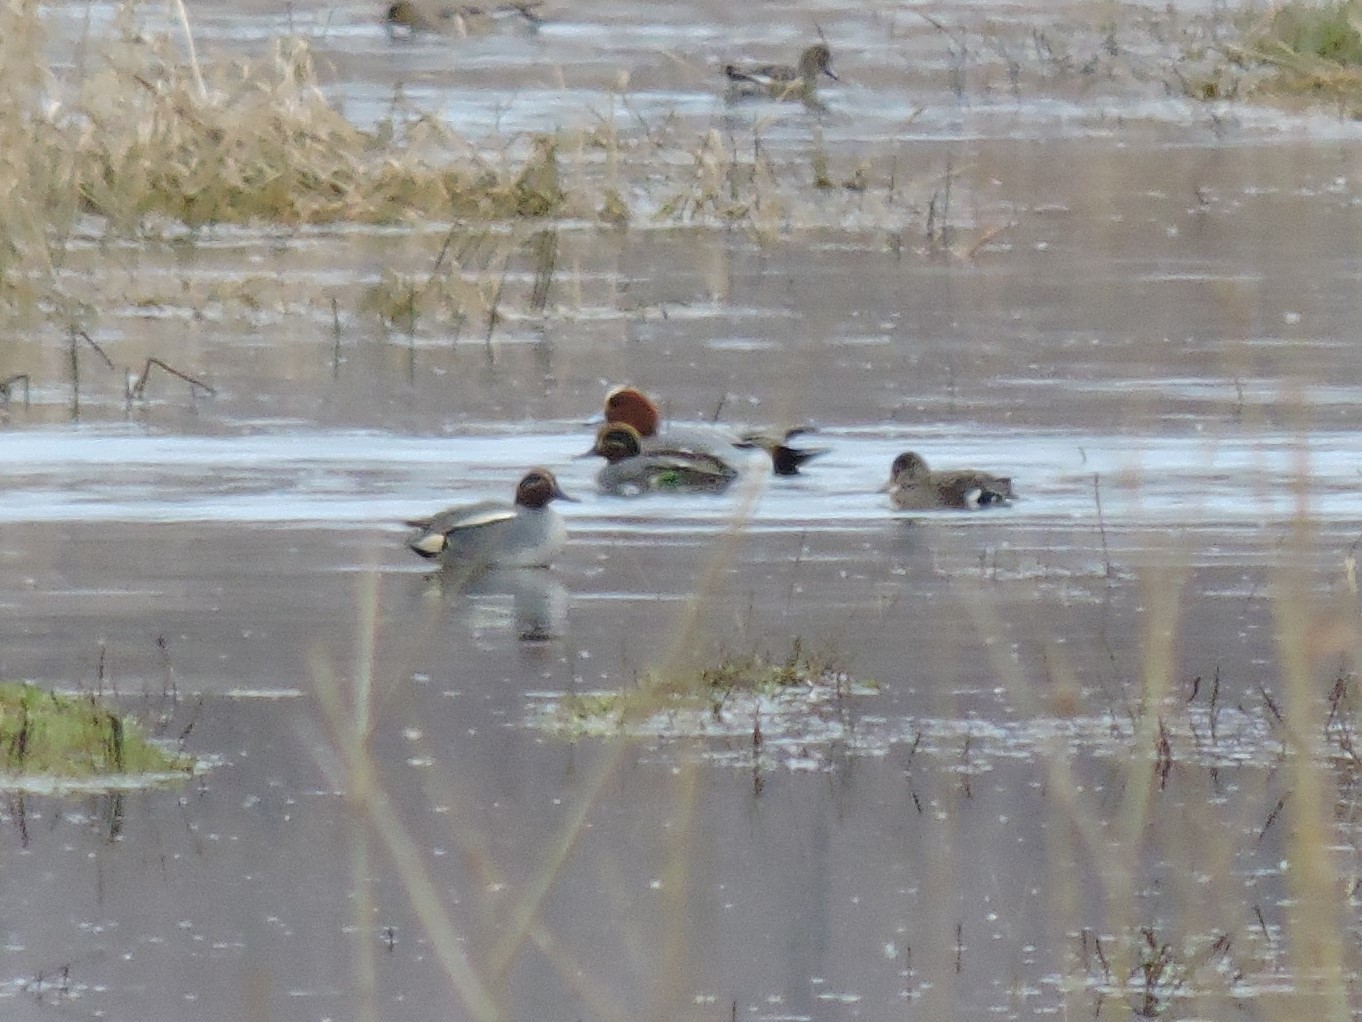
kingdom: Animalia
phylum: Chordata
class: Aves
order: Anseriformes
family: Anatidae
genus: Anas
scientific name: Anas crecca
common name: Eurasian teal
